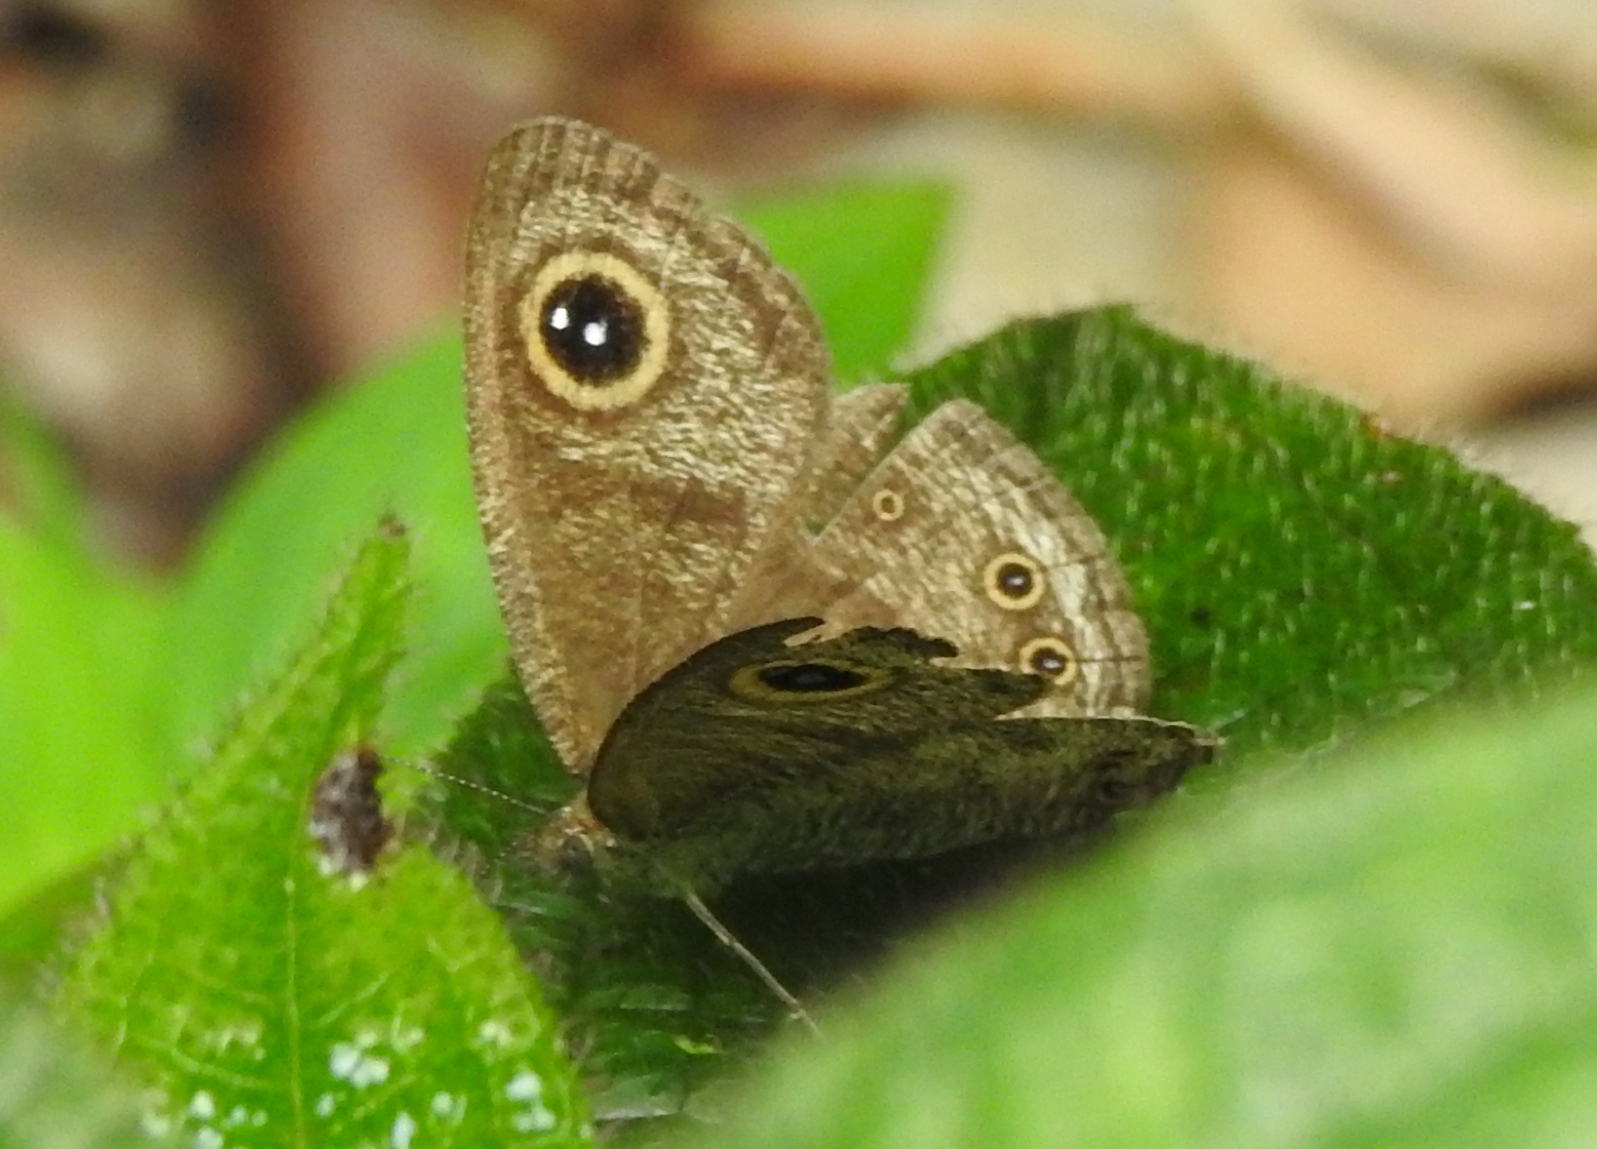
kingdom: Animalia
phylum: Arthropoda
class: Insecta
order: Lepidoptera
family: Nymphalidae
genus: Ypthima
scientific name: Ypthima baldus
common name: Common five-ring
